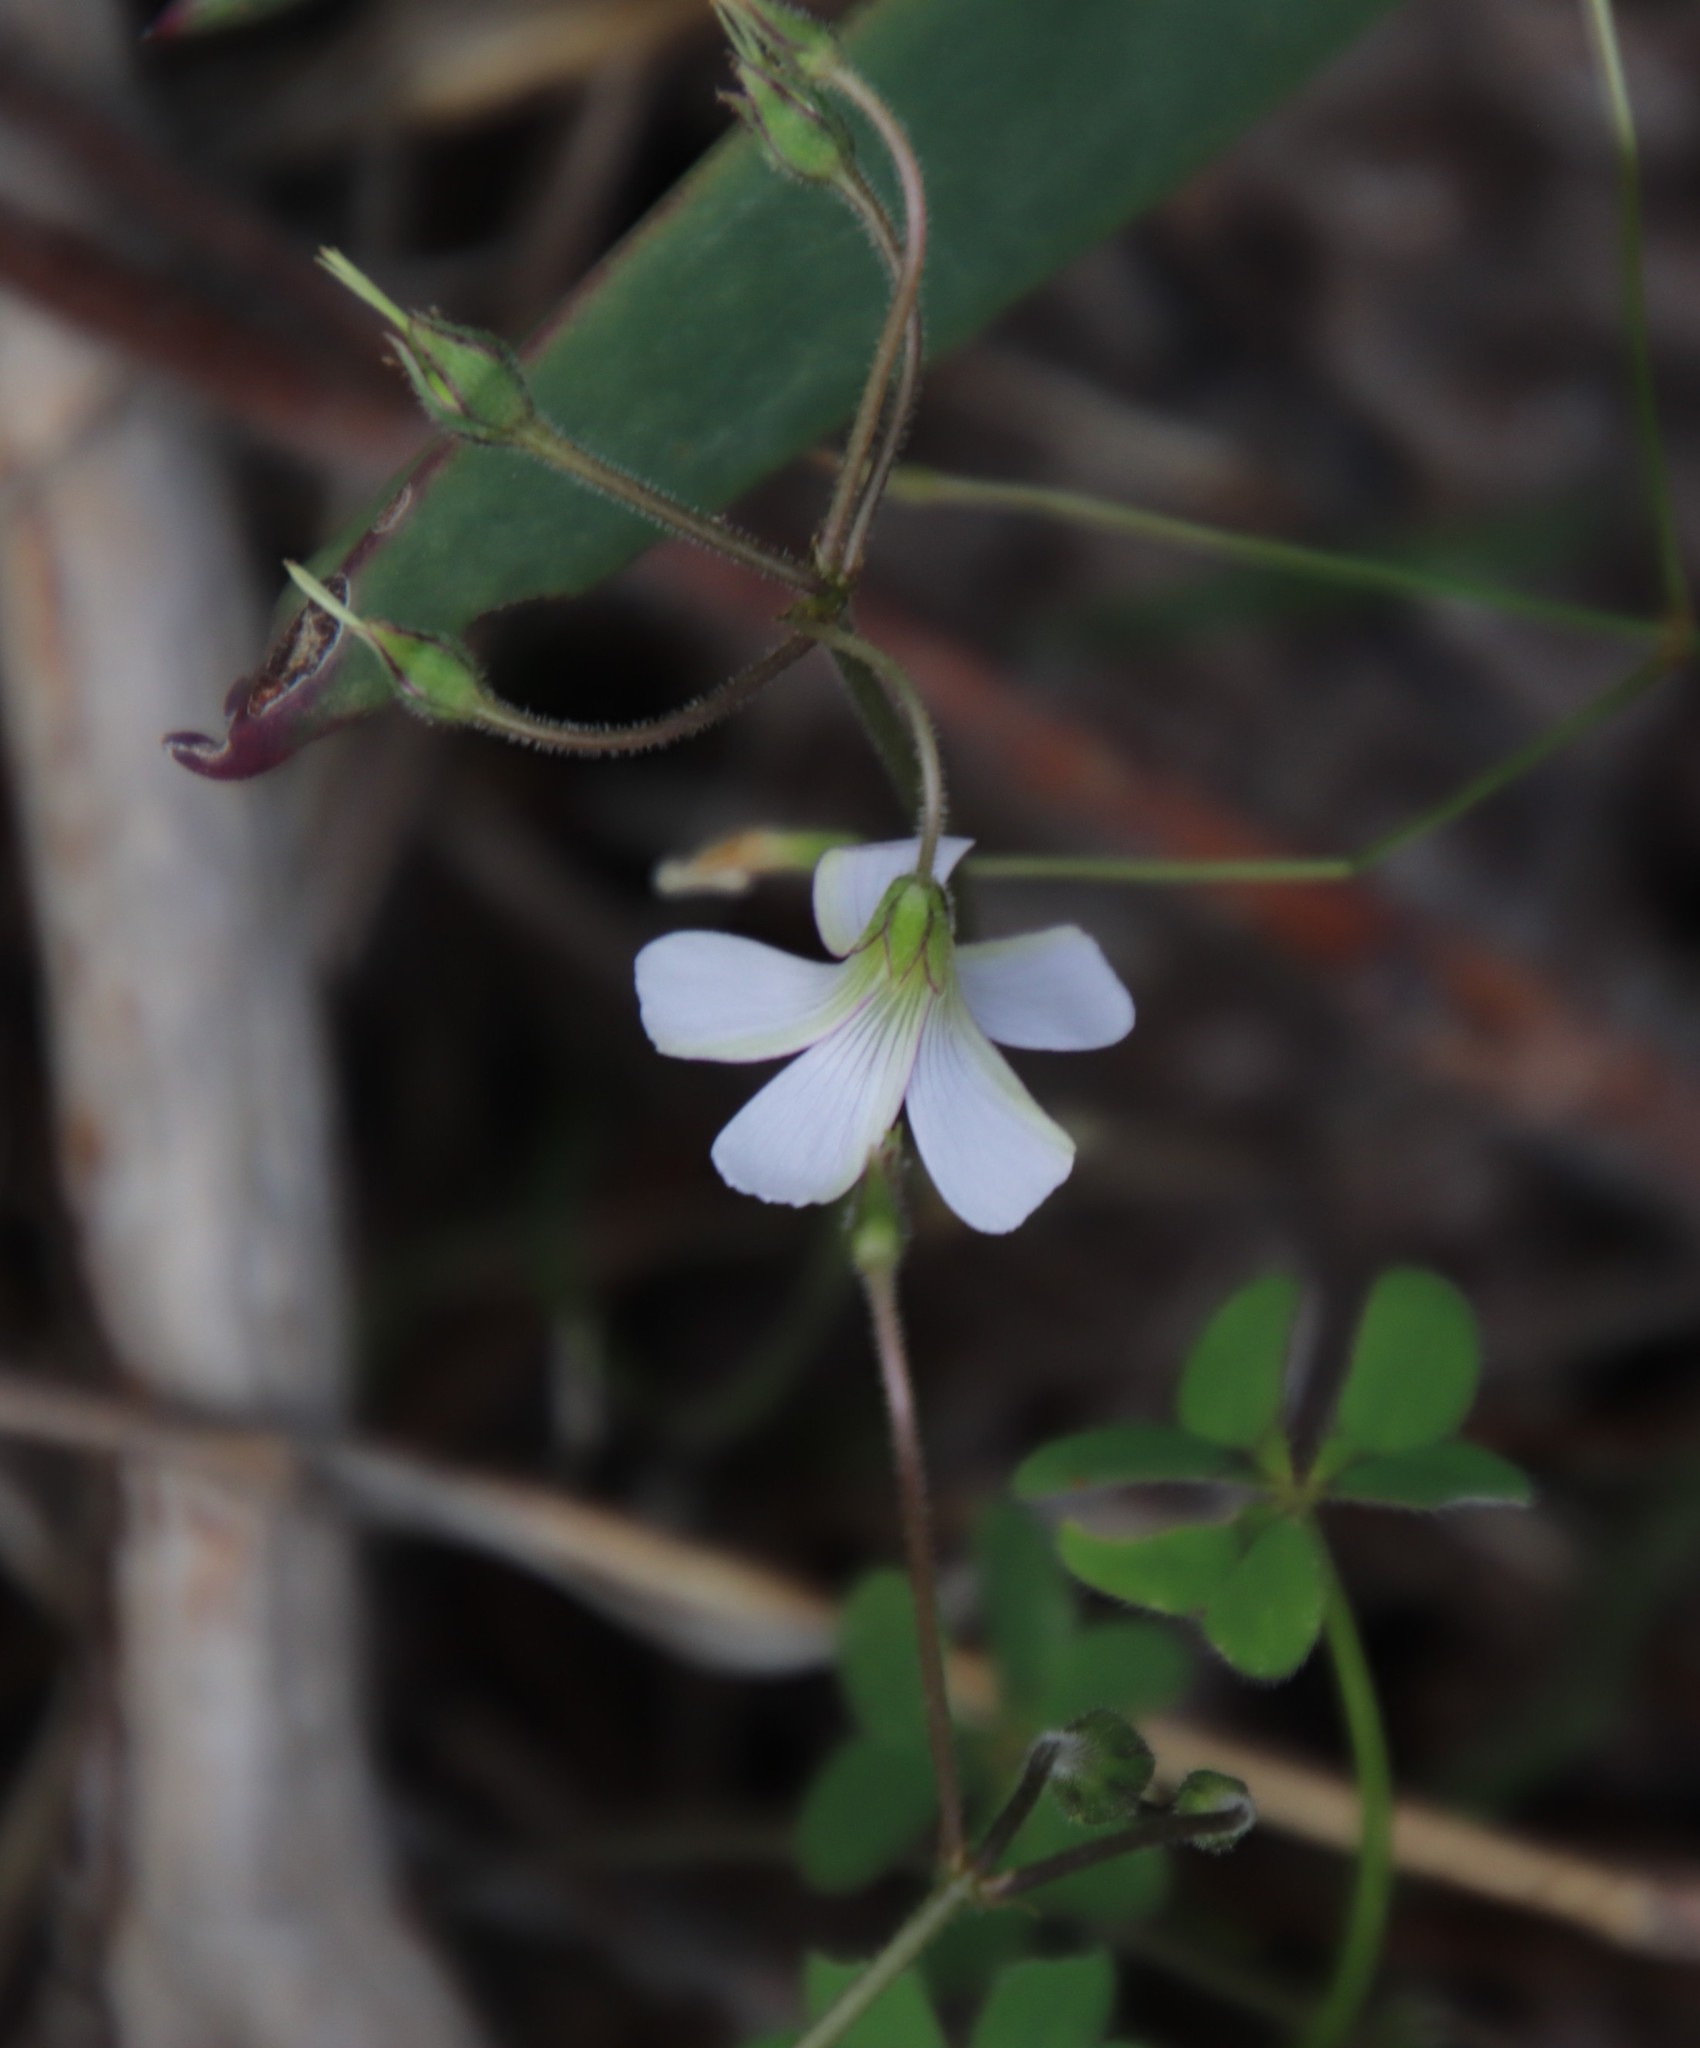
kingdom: Plantae
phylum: Tracheophyta
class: Magnoliopsida
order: Oxalidales
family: Oxalidaceae
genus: Oxalis
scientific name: Oxalis
